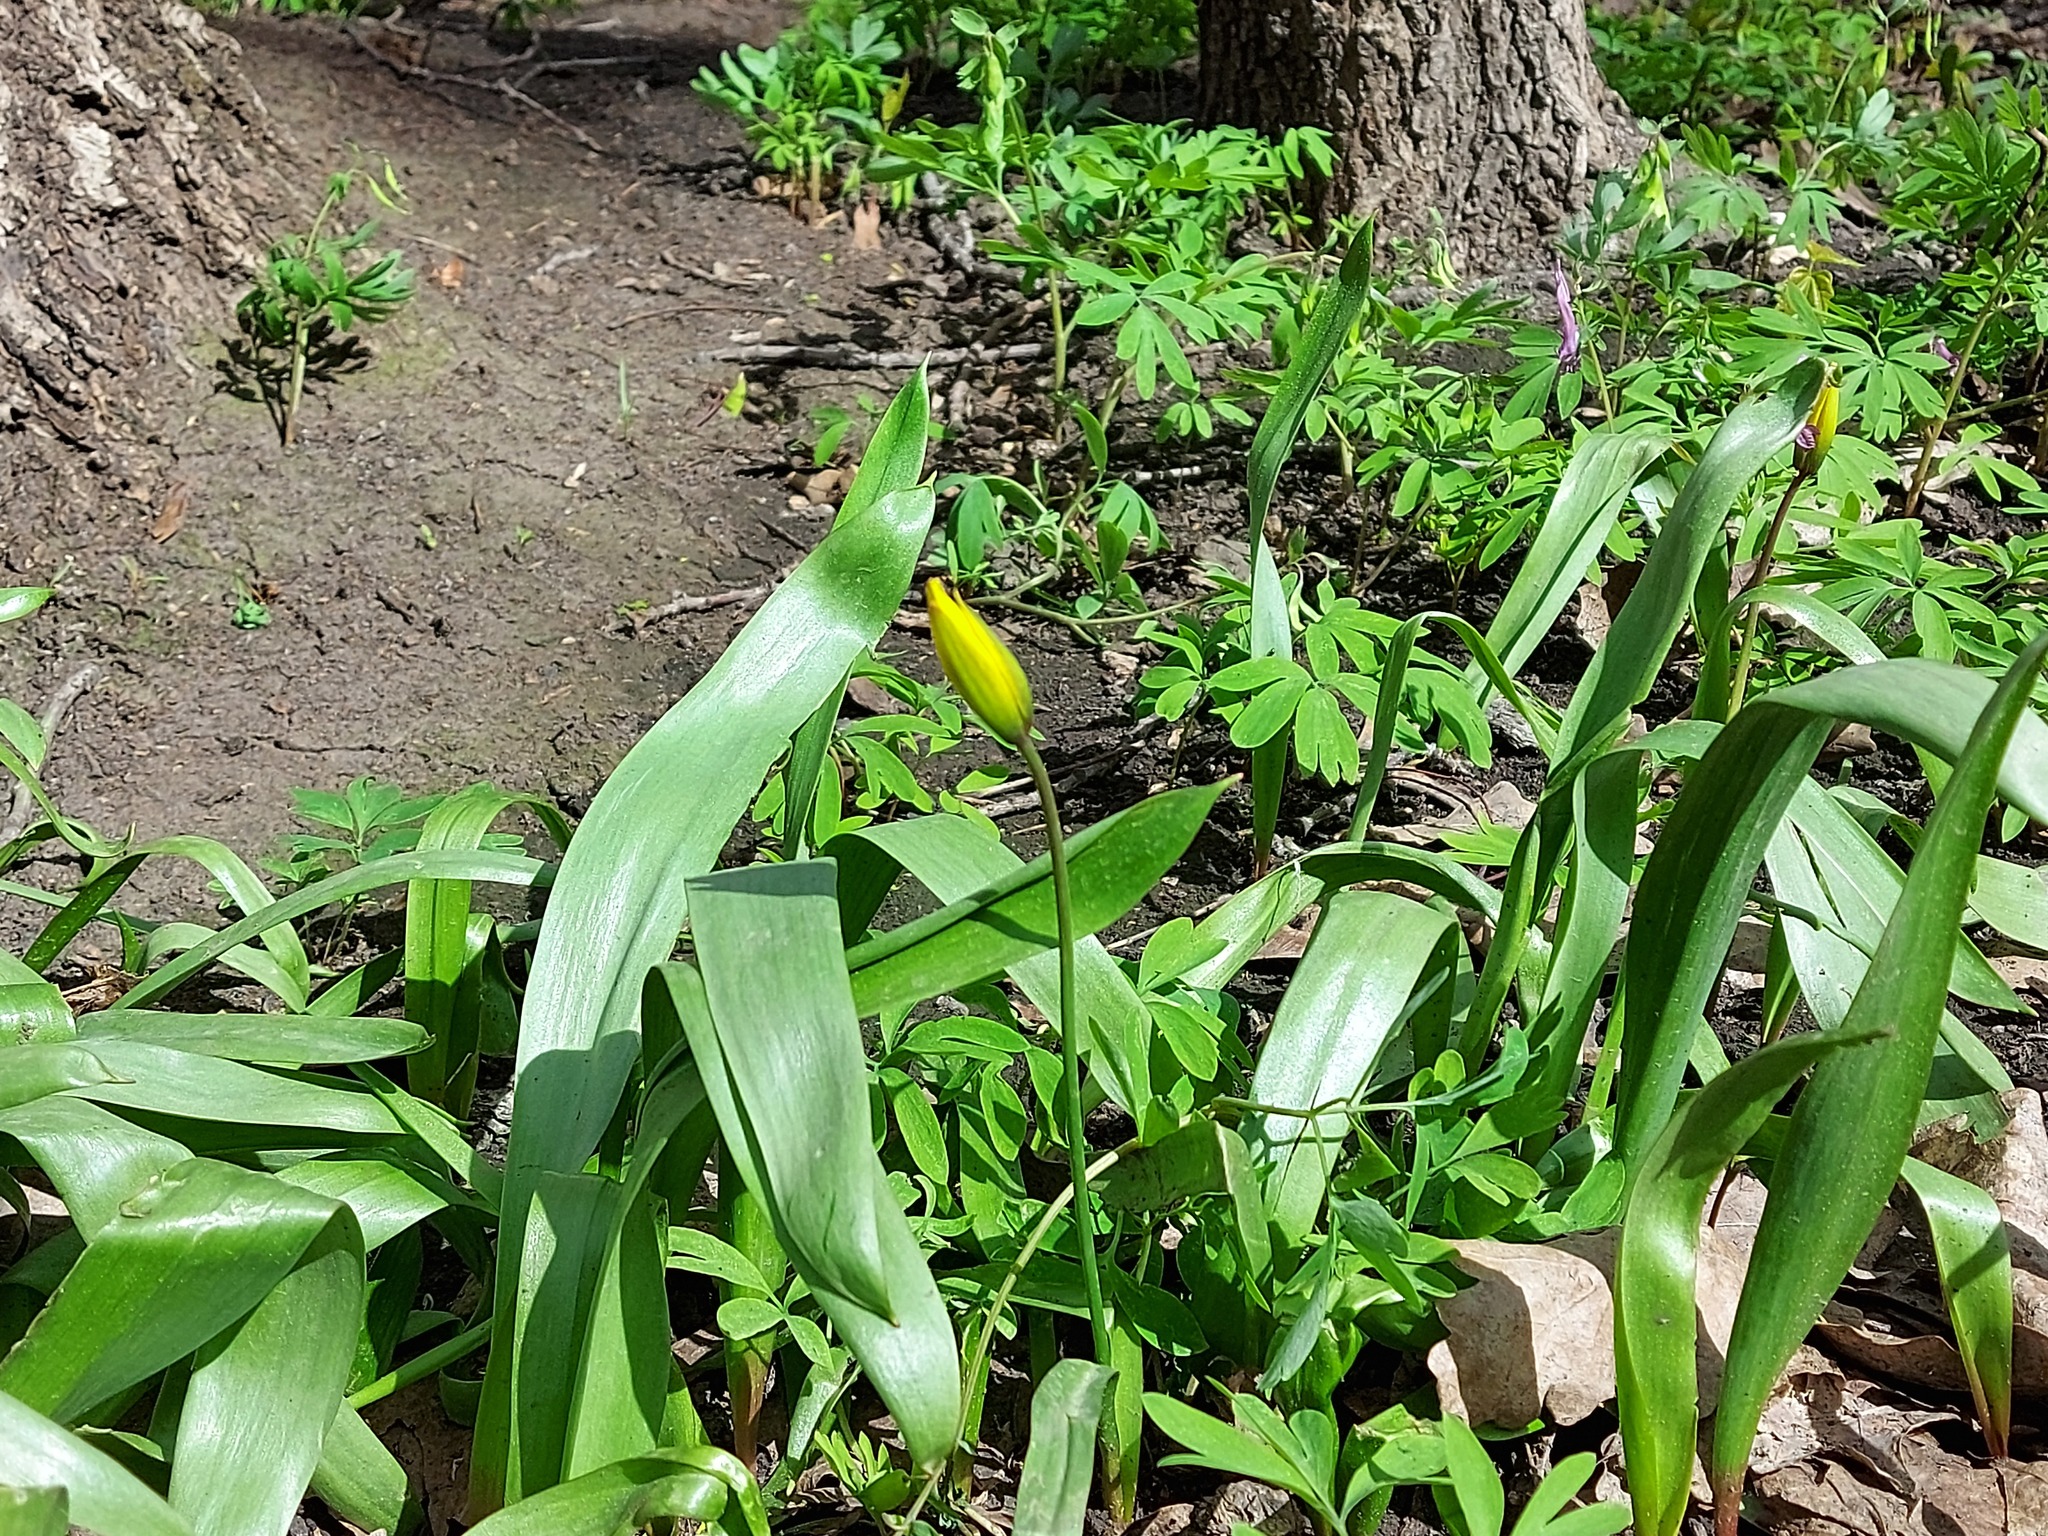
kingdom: Plantae
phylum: Tracheophyta
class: Liliopsida
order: Liliales
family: Liliaceae
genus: Tulipa
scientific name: Tulipa sylvestris
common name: Wild tulip
